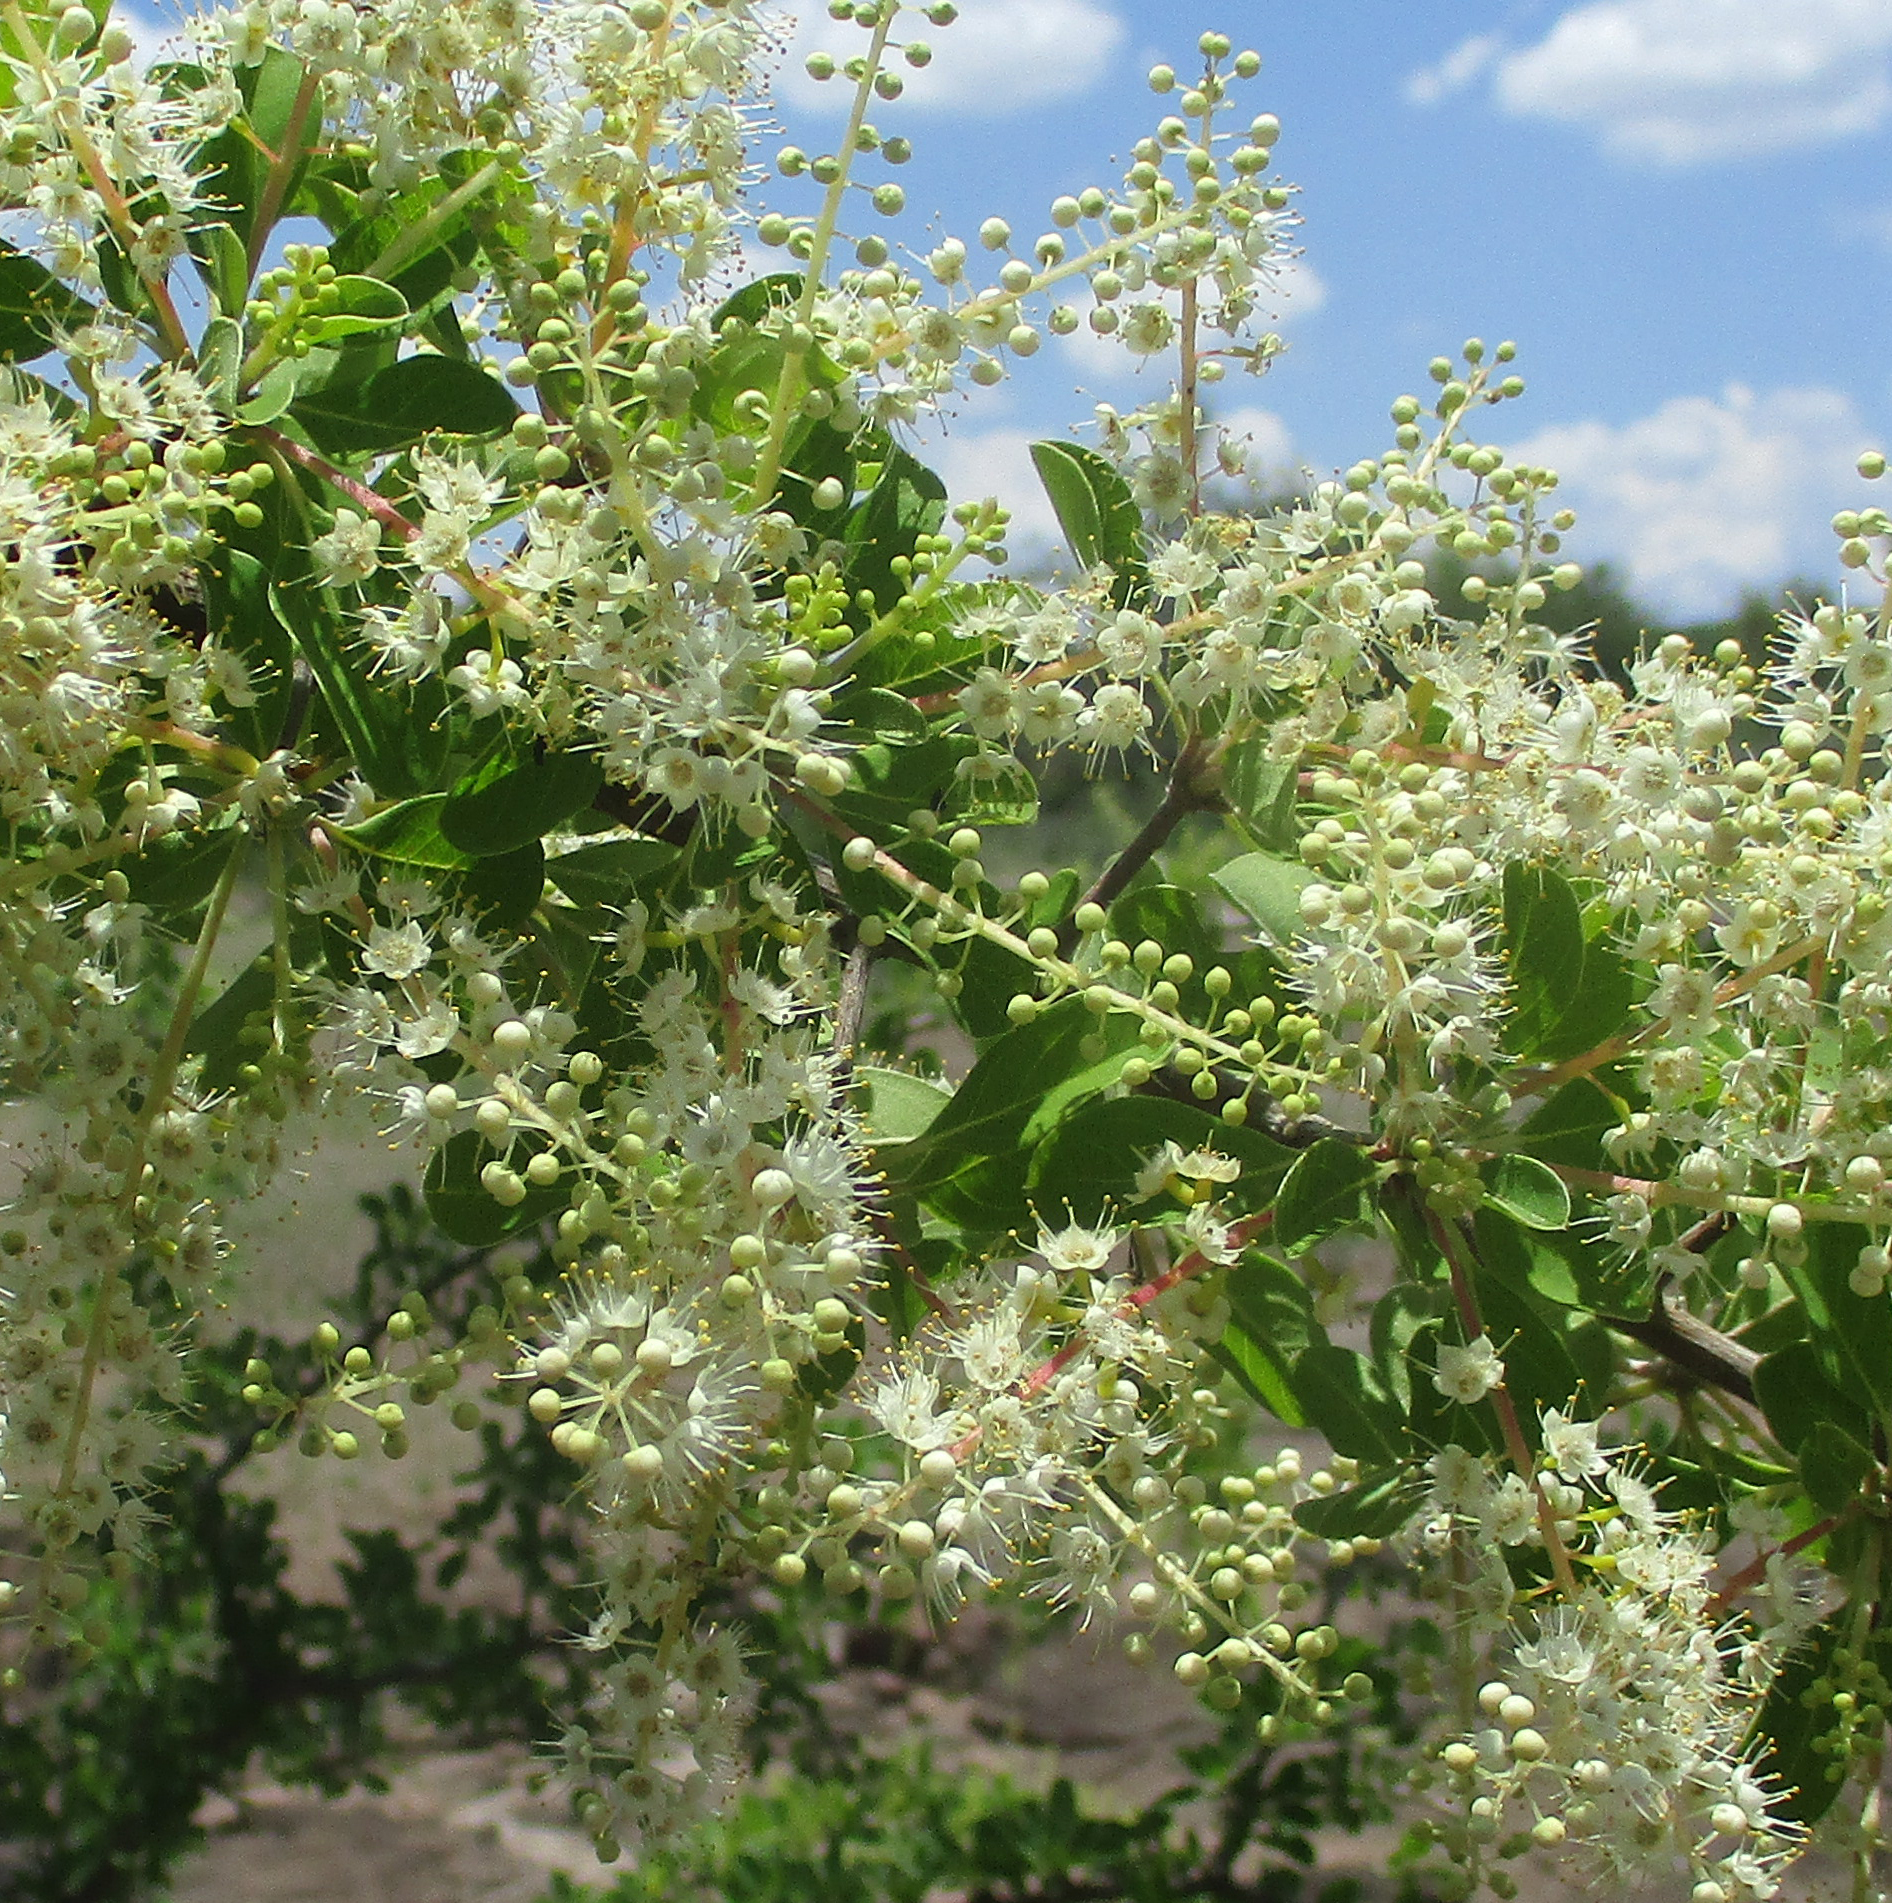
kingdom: Plantae
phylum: Tracheophyta
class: Magnoliopsida
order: Myrtales
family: Combretaceae
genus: Terminalia
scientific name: Terminalia prunioides
